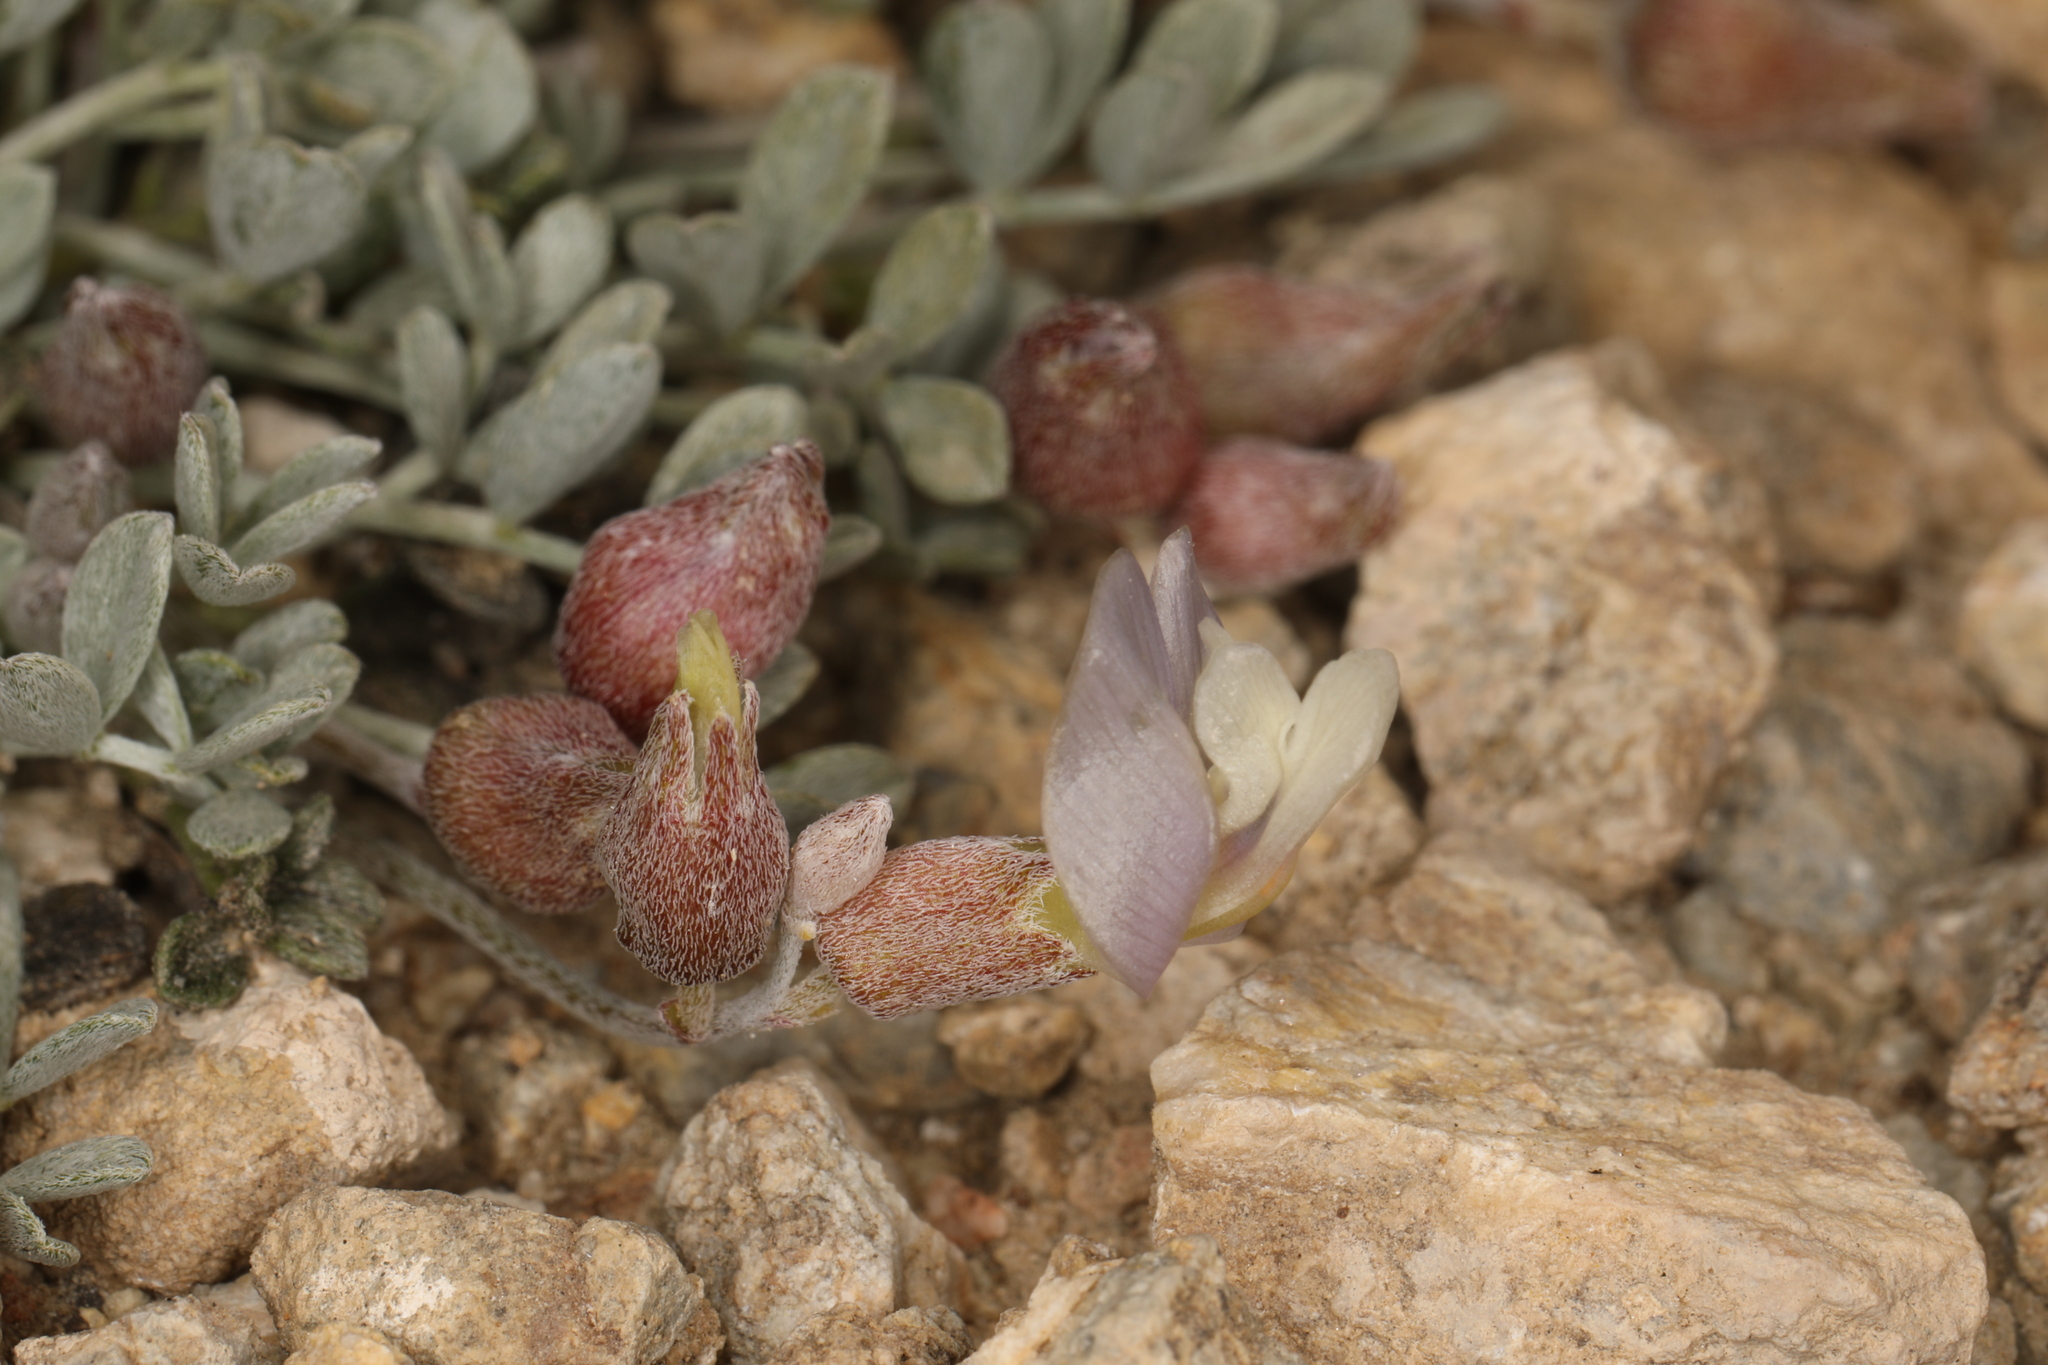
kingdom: Plantae
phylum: Tracheophyta
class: Magnoliopsida
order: Fabales
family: Fabaceae
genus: Astragalus
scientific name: Astragalus calycosus
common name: King's milkvetch
